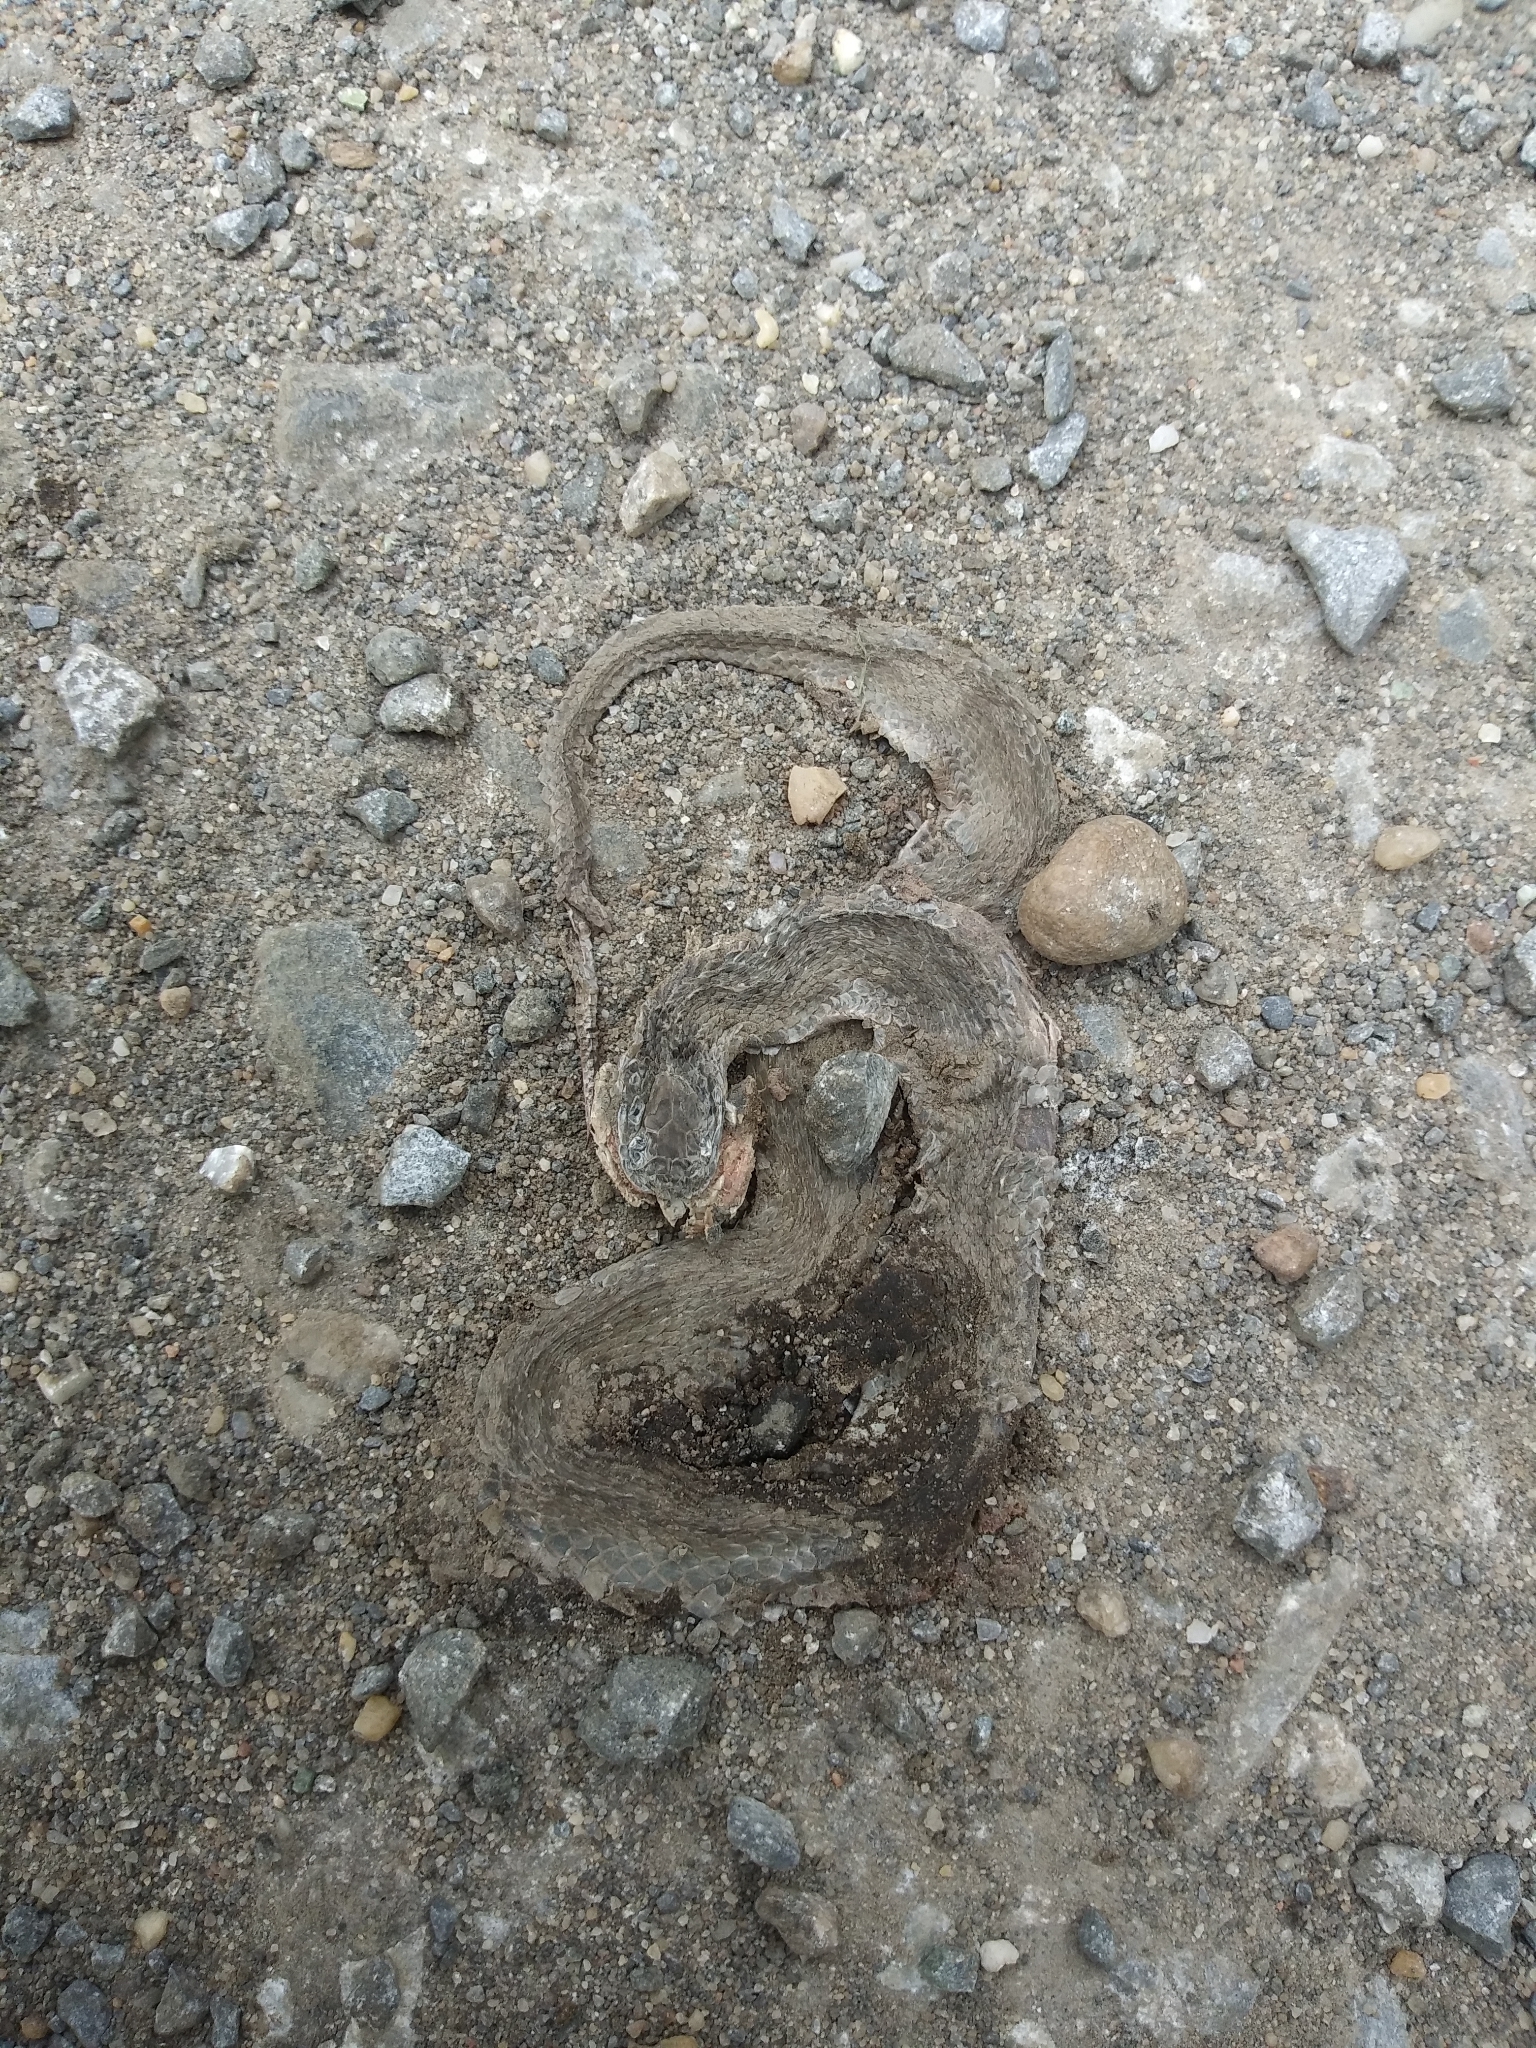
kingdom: Animalia
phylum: Chordata
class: Squamata
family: Colubridae
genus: Storeria
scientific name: Storeria dekayi
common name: (dekay’s) brown snake
